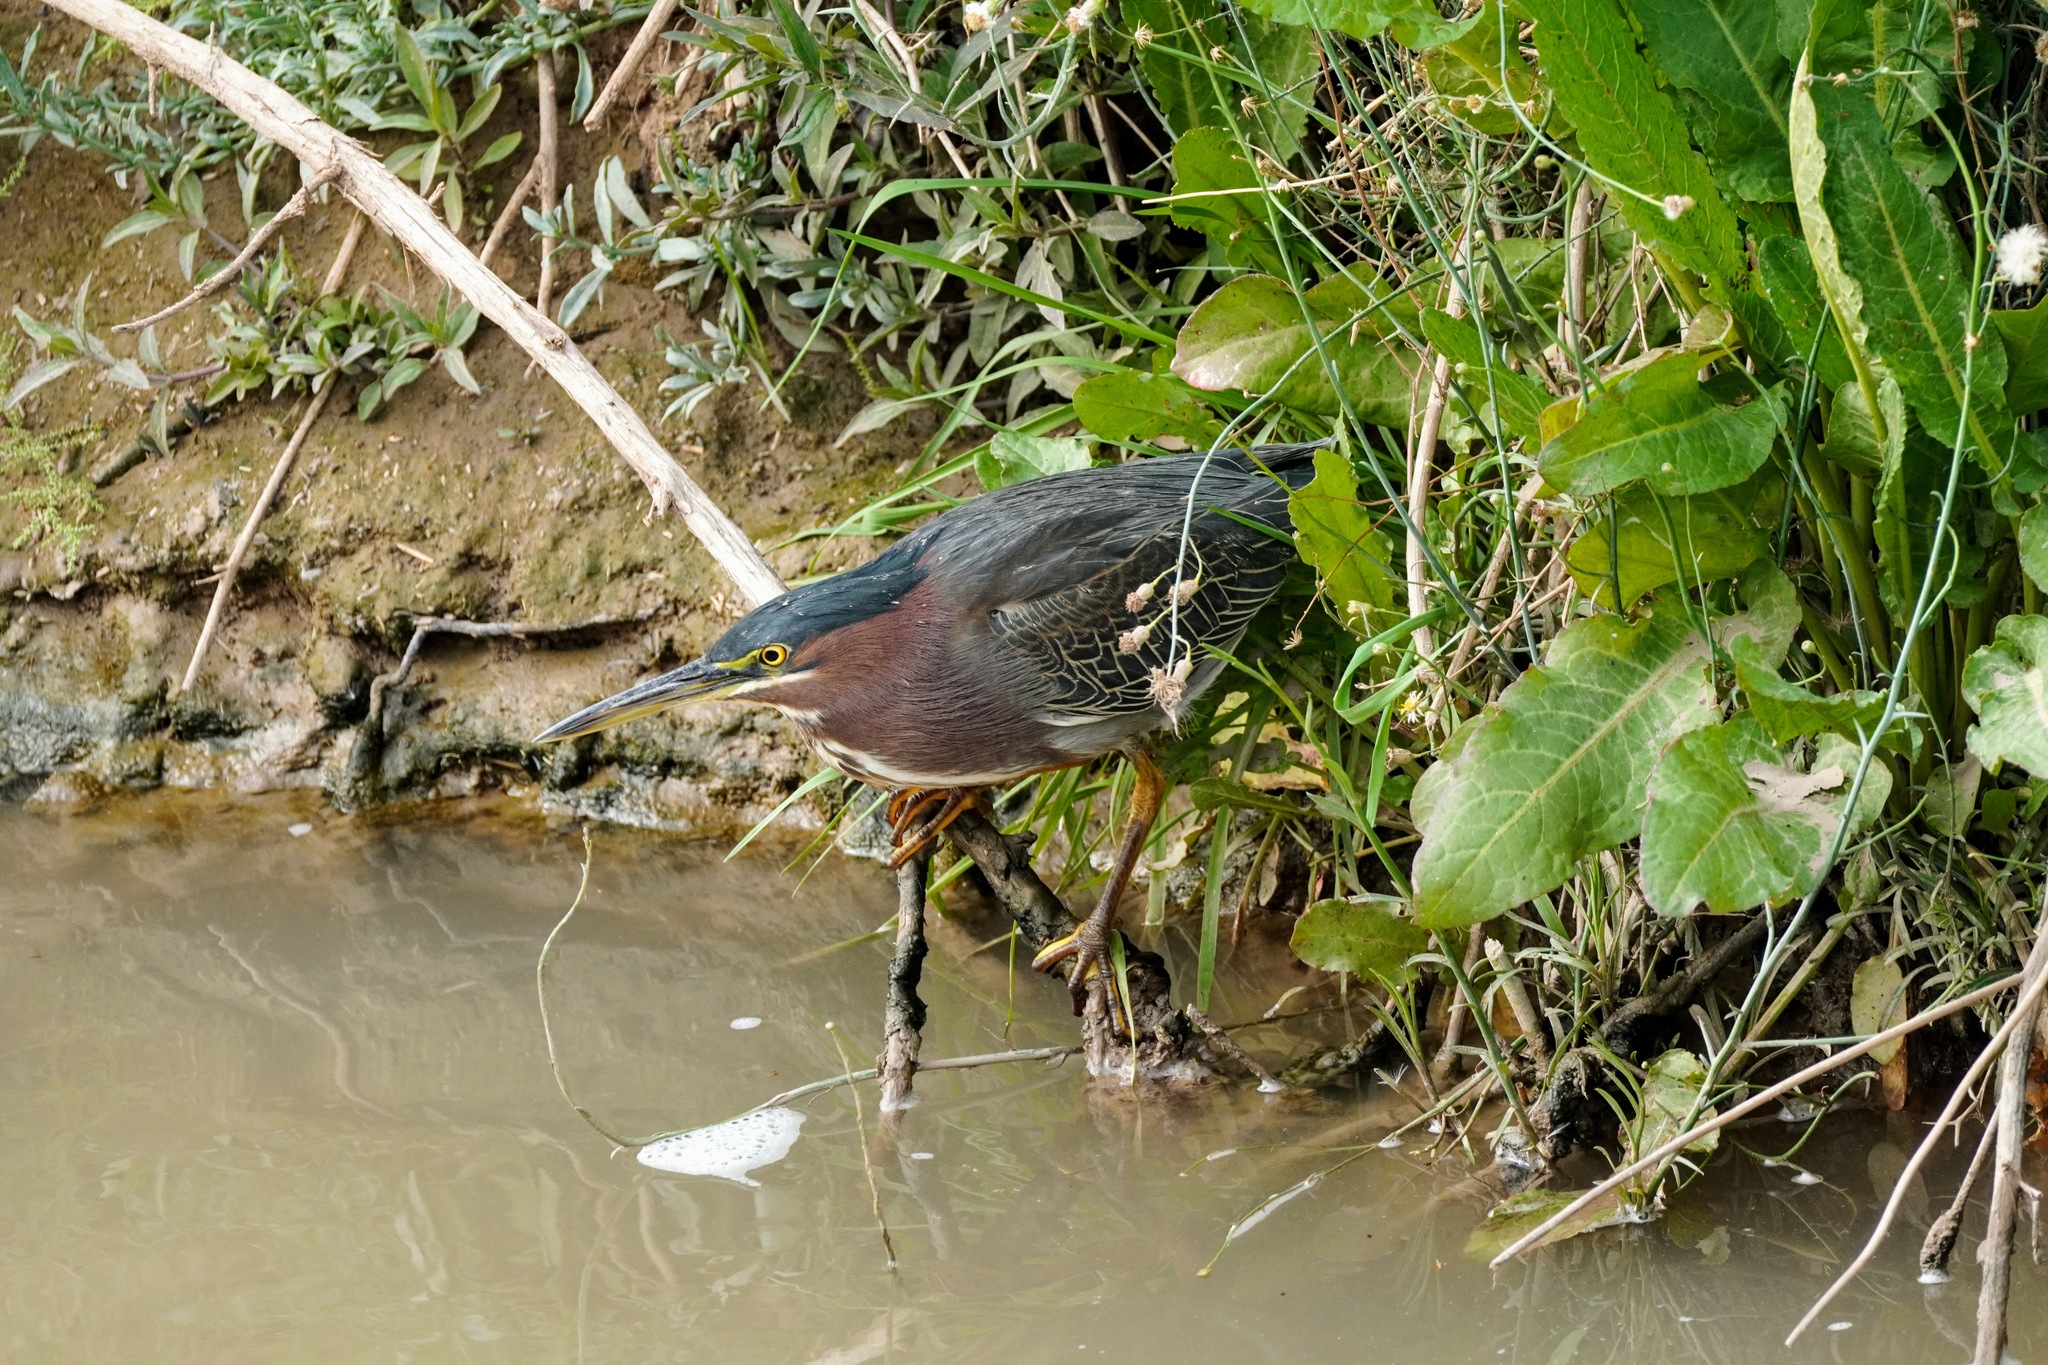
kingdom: Animalia
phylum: Chordata
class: Aves
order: Pelecaniformes
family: Ardeidae
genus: Butorides
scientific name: Butorides virescens
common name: Green heron
